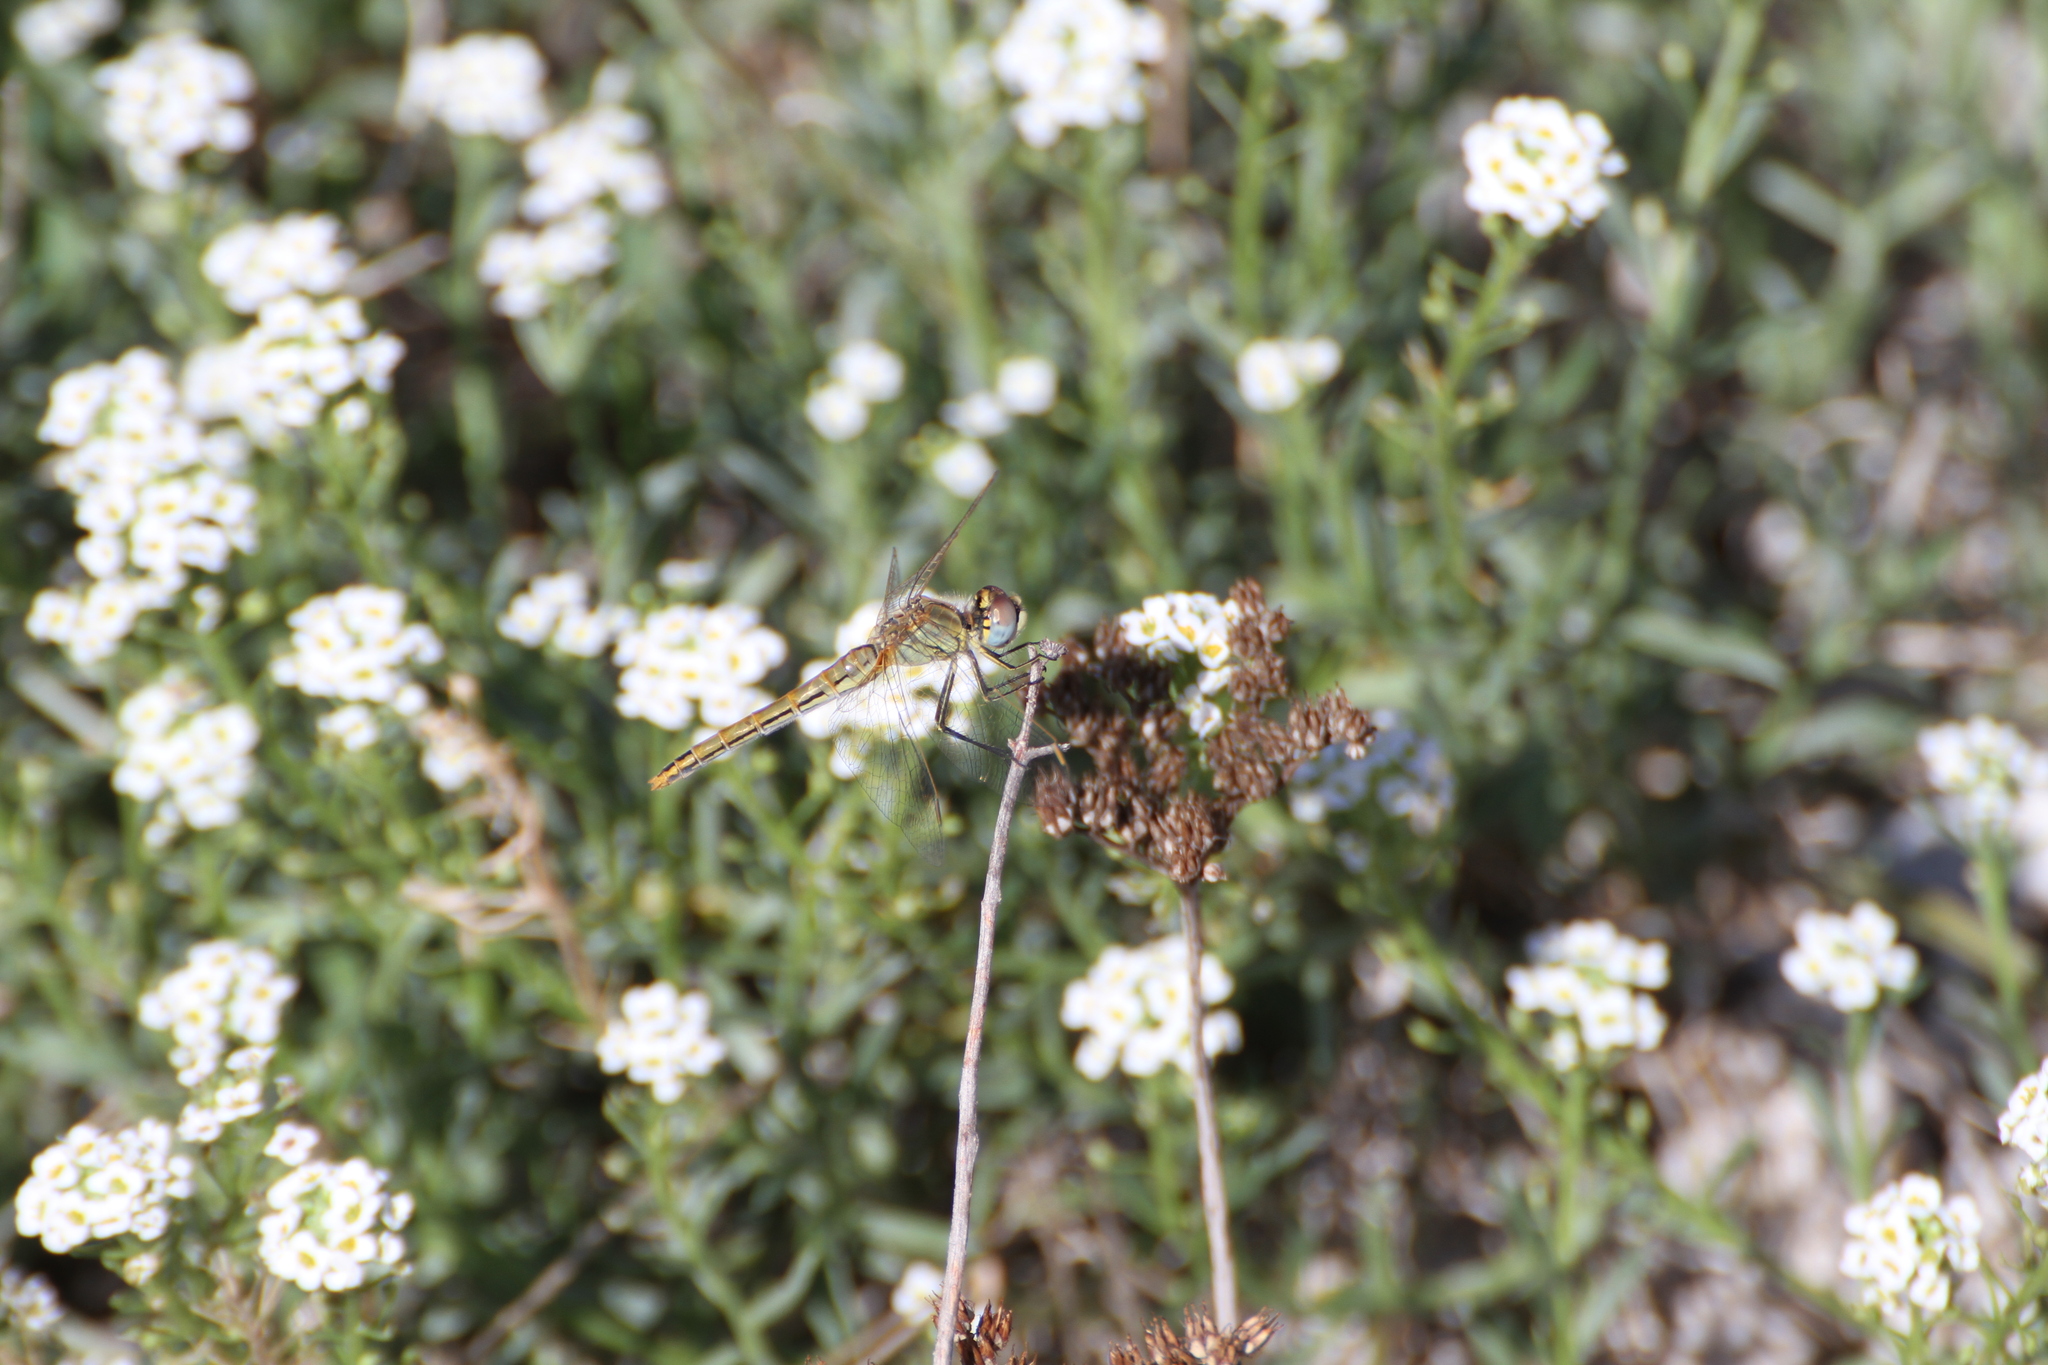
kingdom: Animalia
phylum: Arthropoda
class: Insecta
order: Odonata
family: Libellulidae
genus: Sympetrum
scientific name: Sympetrum fonscolombii
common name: Red-veined darter
